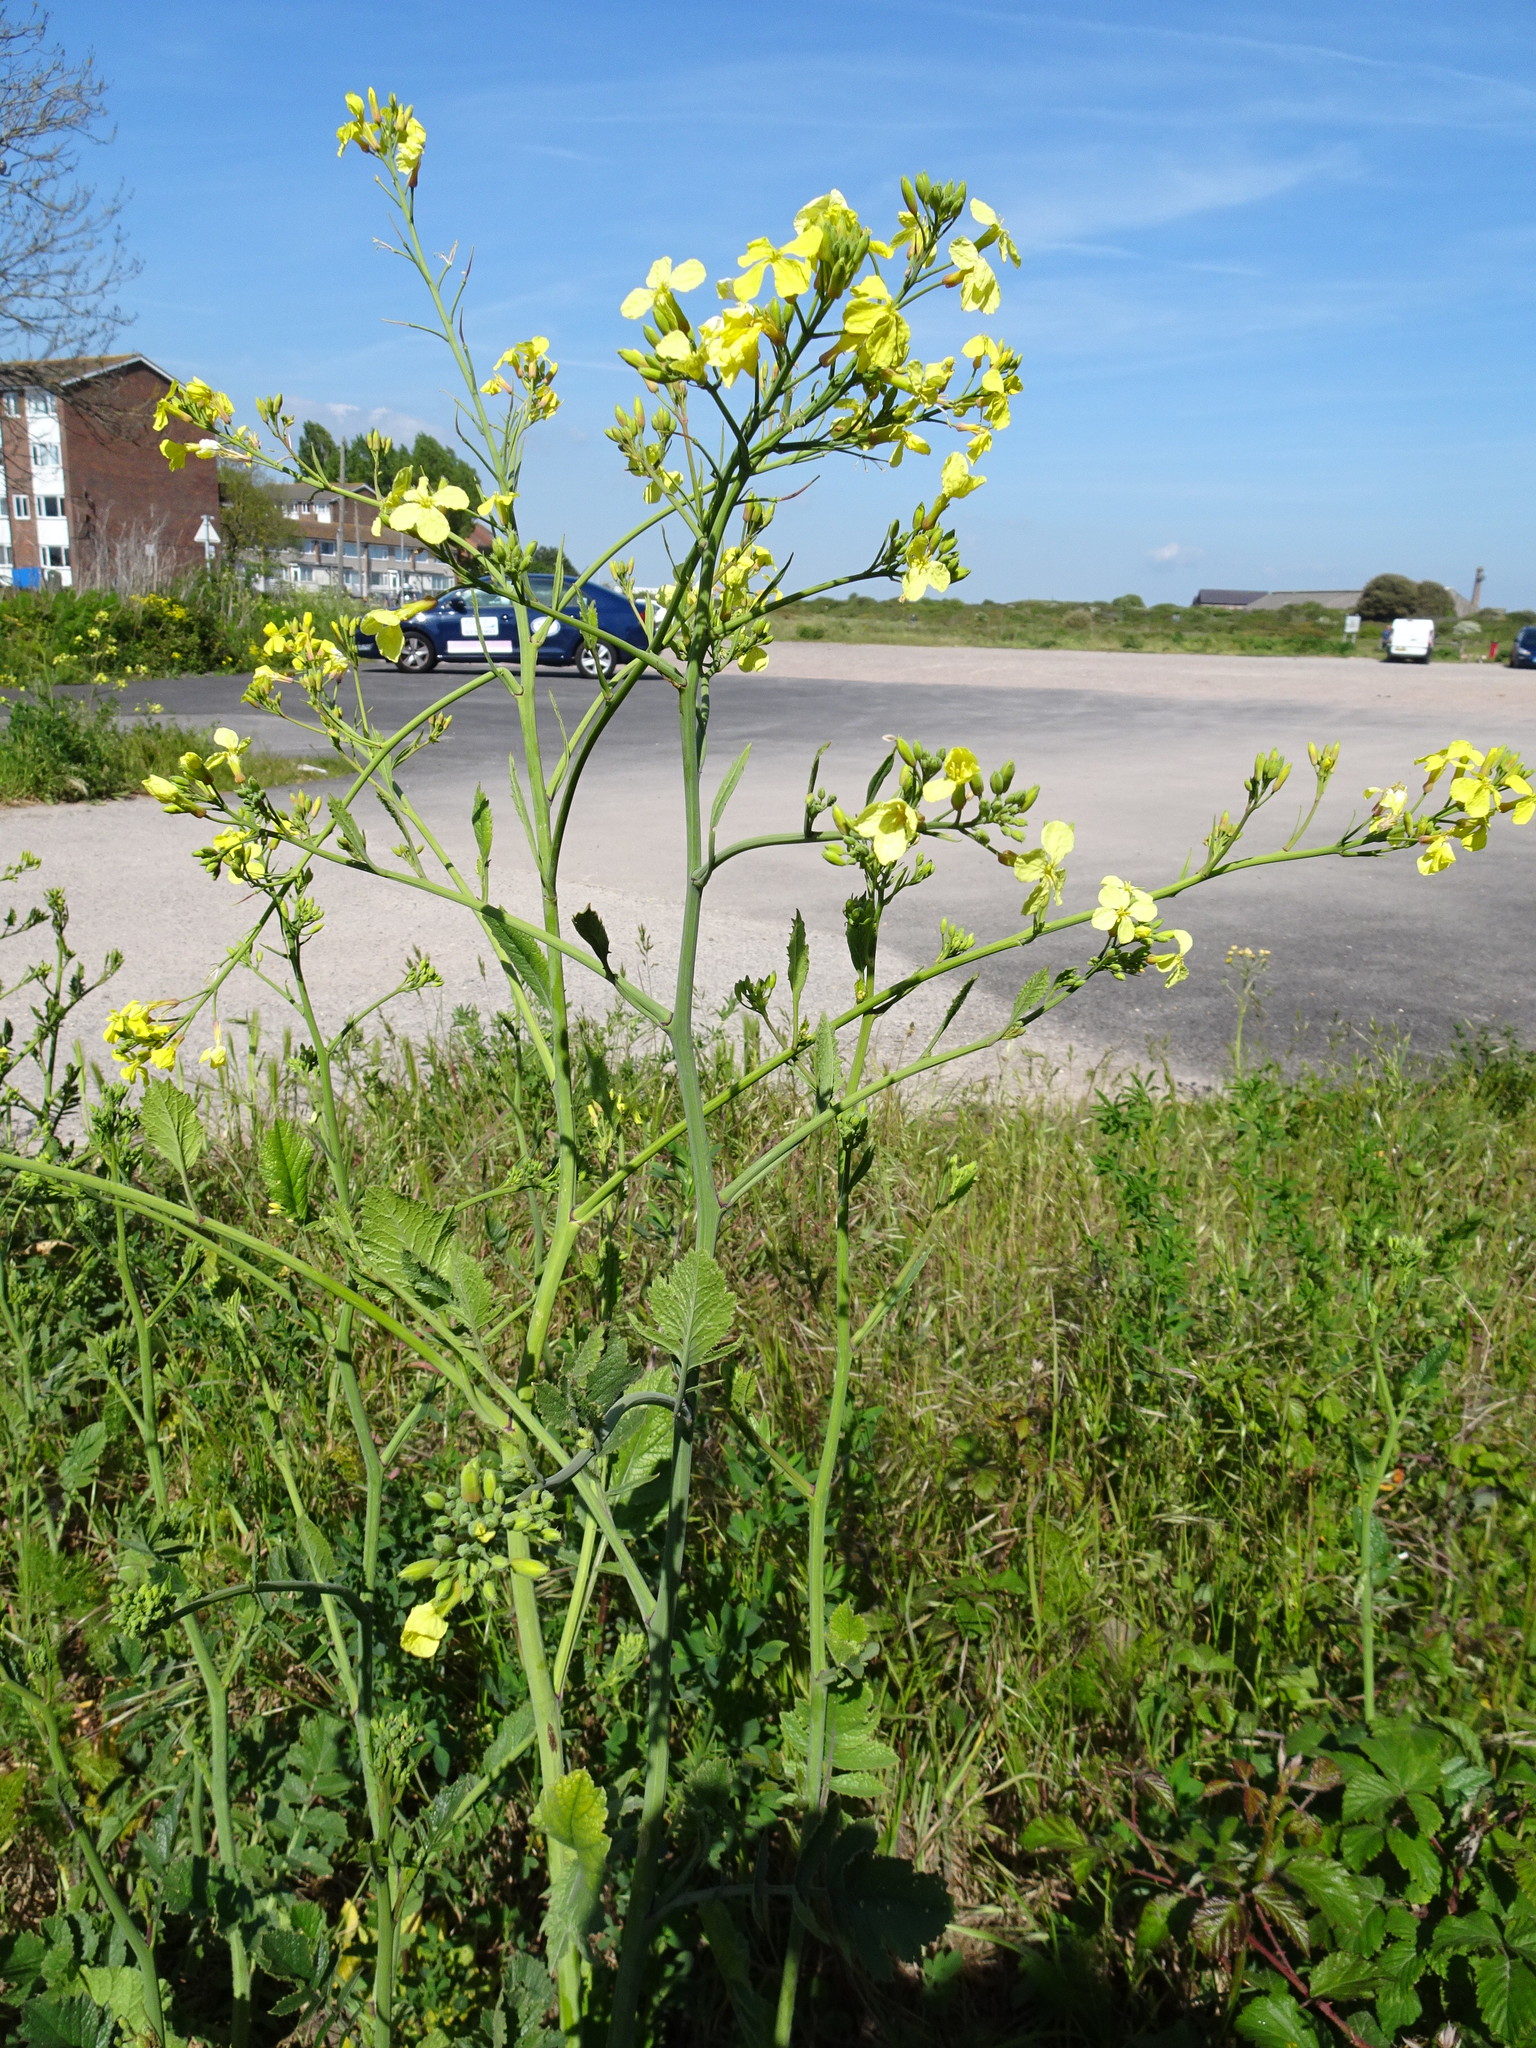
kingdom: Plantae
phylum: Tracheophyta
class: Magnoliopsida
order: Brassicales
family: Brassicaceae
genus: Raphanus
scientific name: Raphanus raphanistrum
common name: Wild radish
